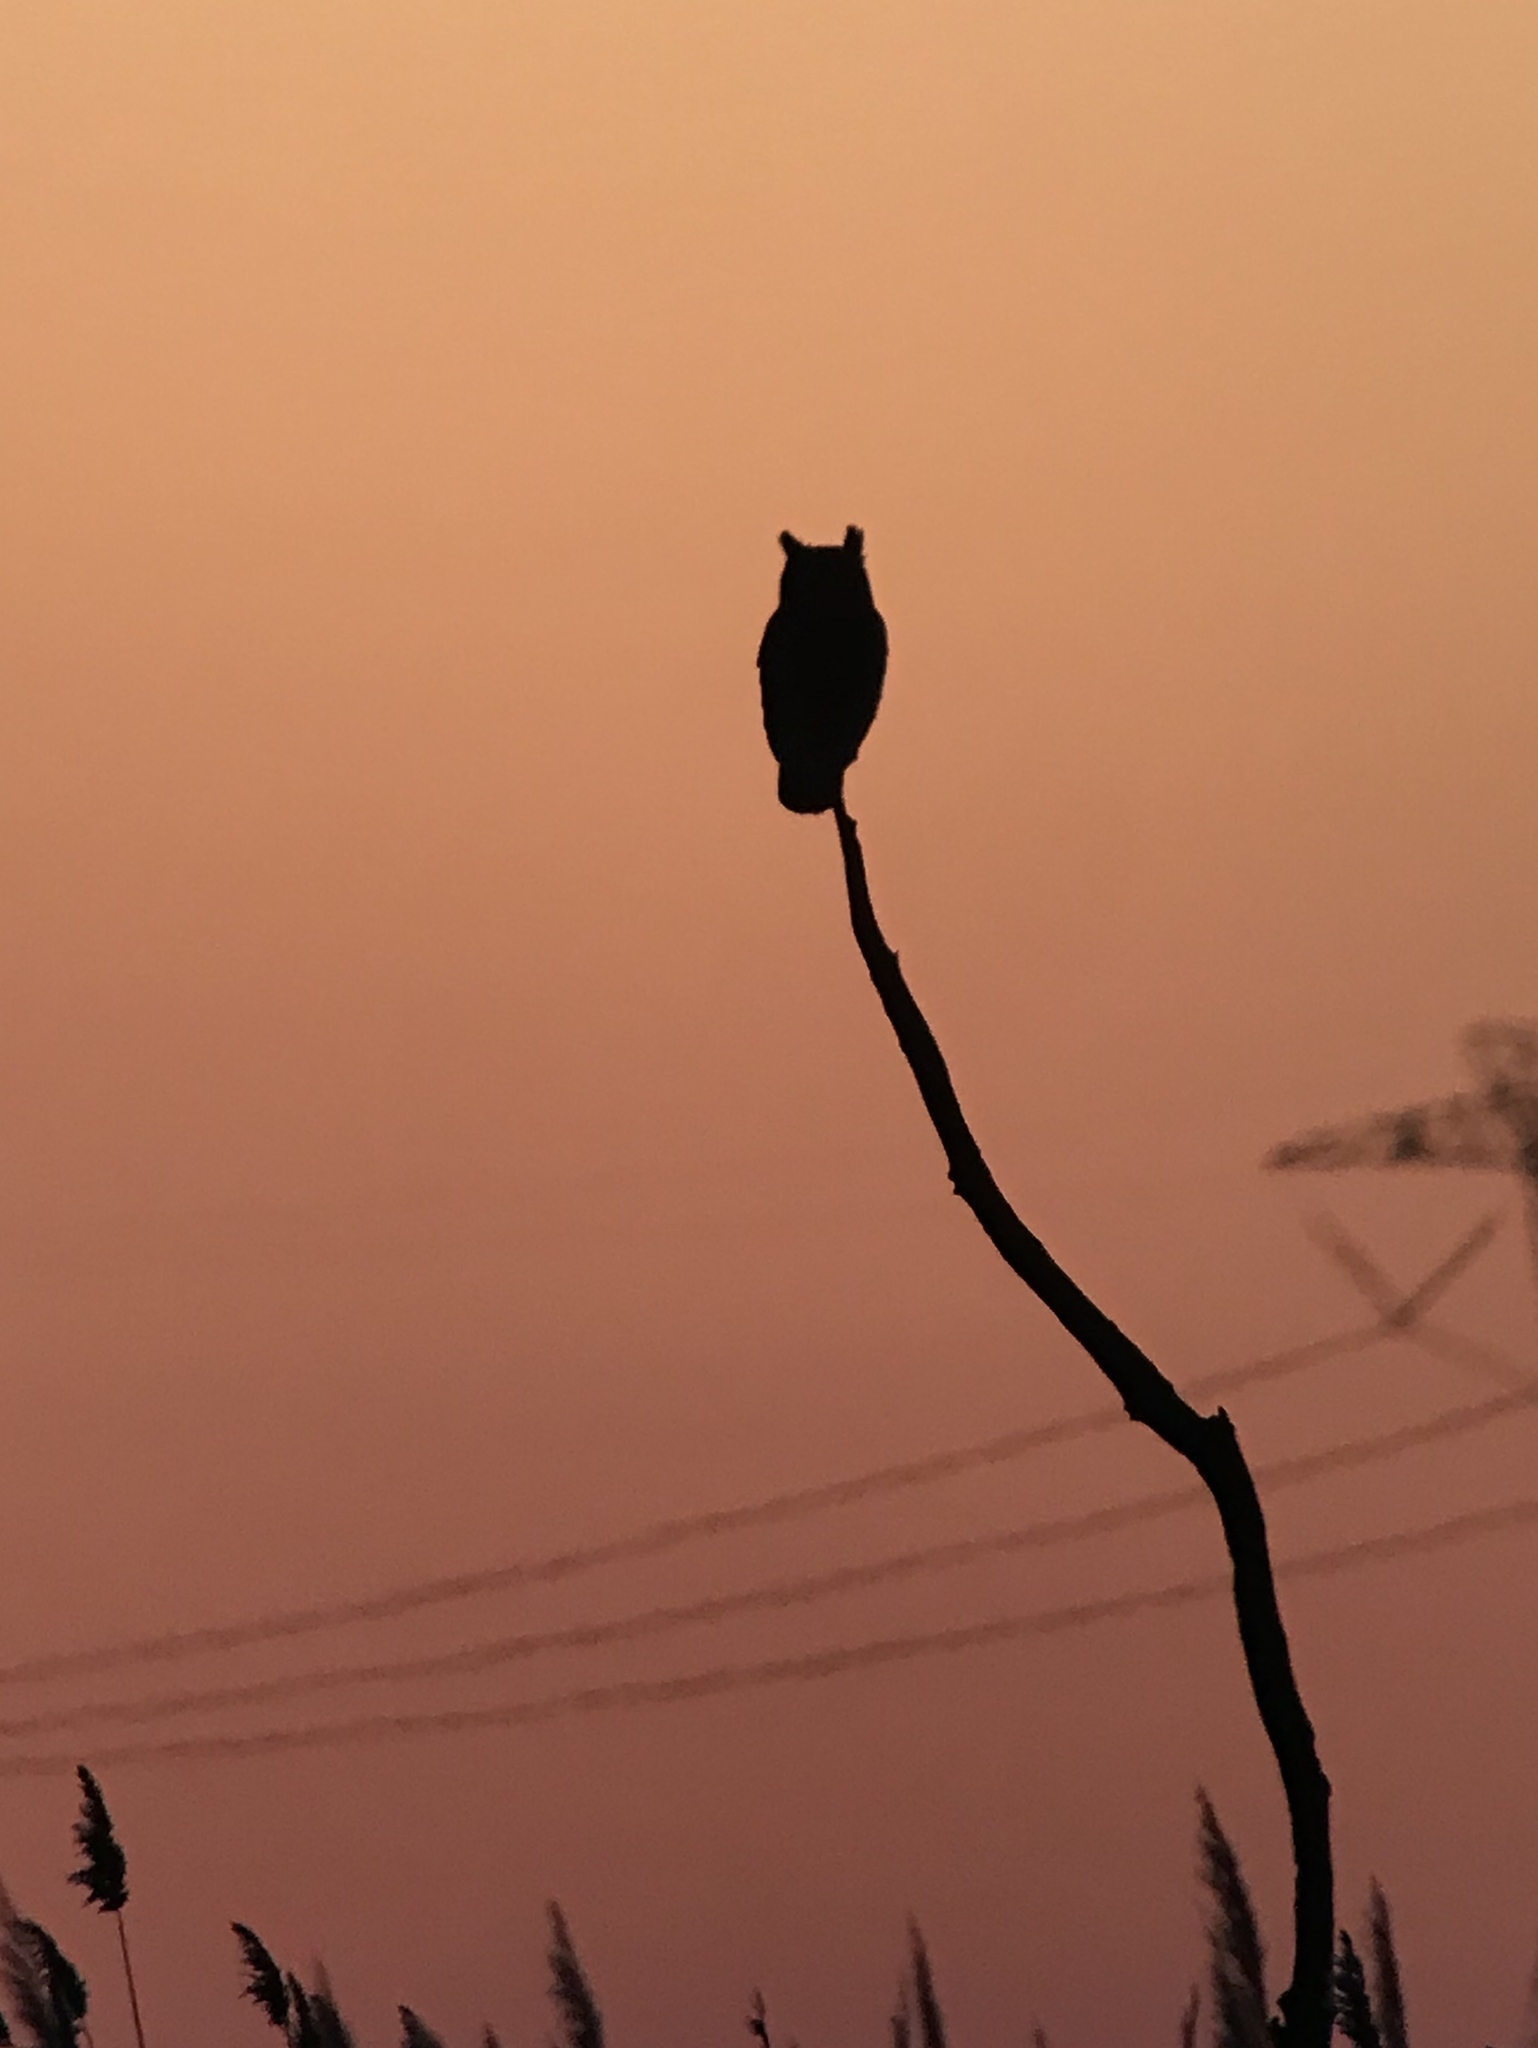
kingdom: Animalia
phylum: Chordata
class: Aves
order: Strigiformes
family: Strigidae
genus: Bubo
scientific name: Bubo virginianus
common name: Great horned owl
